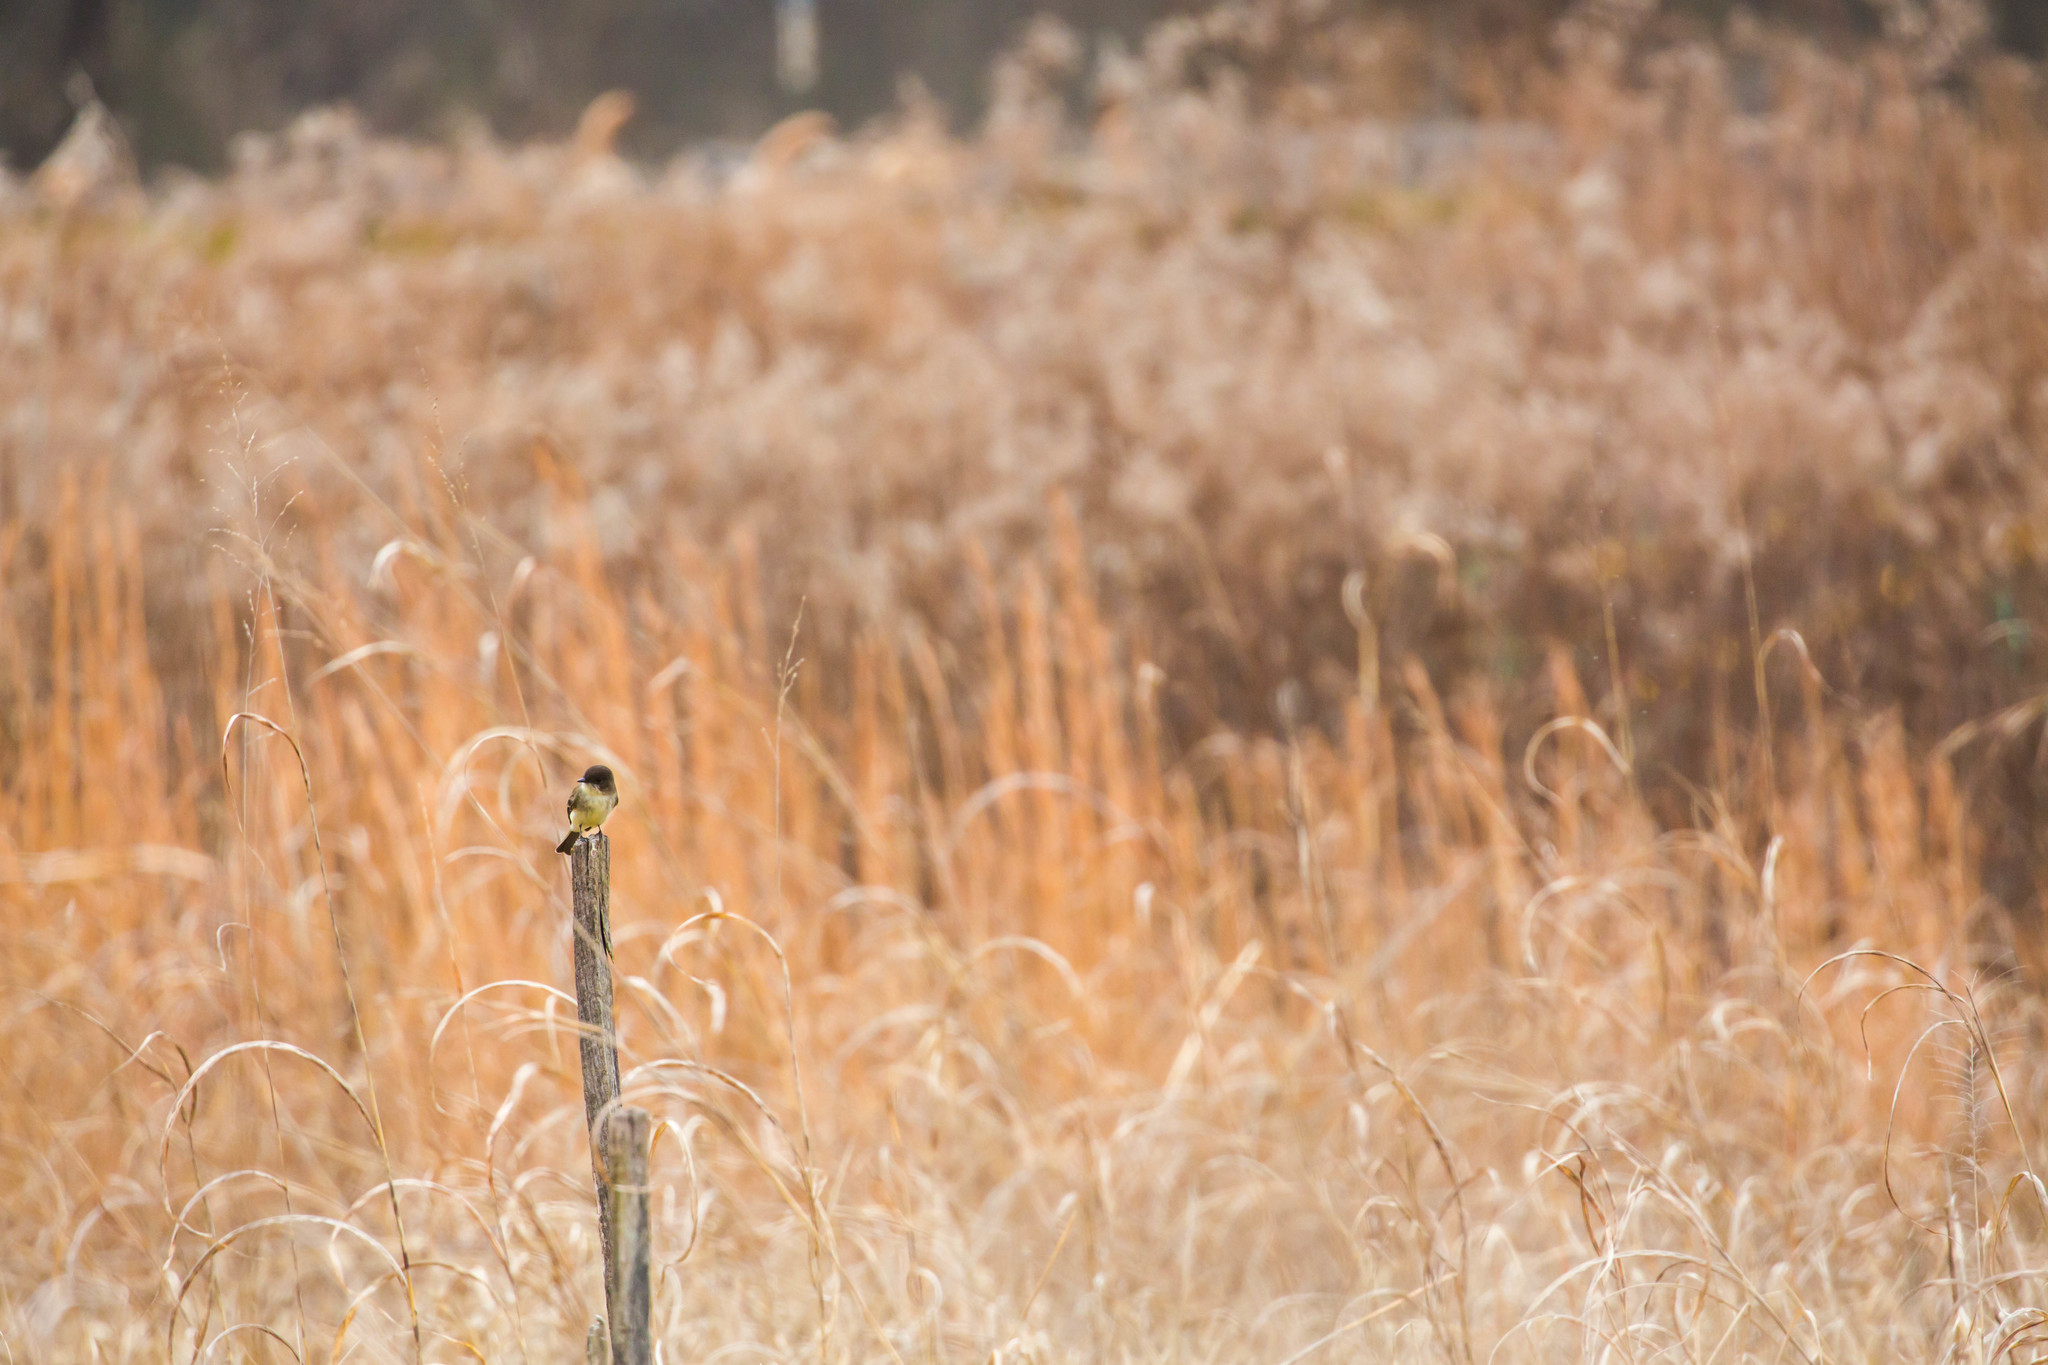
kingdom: Animalia
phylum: Chordata
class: Aves
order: Passeriformes
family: Tyrannidae
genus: Sayornis
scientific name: Sayornis phoebe
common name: Eastern phoebe
